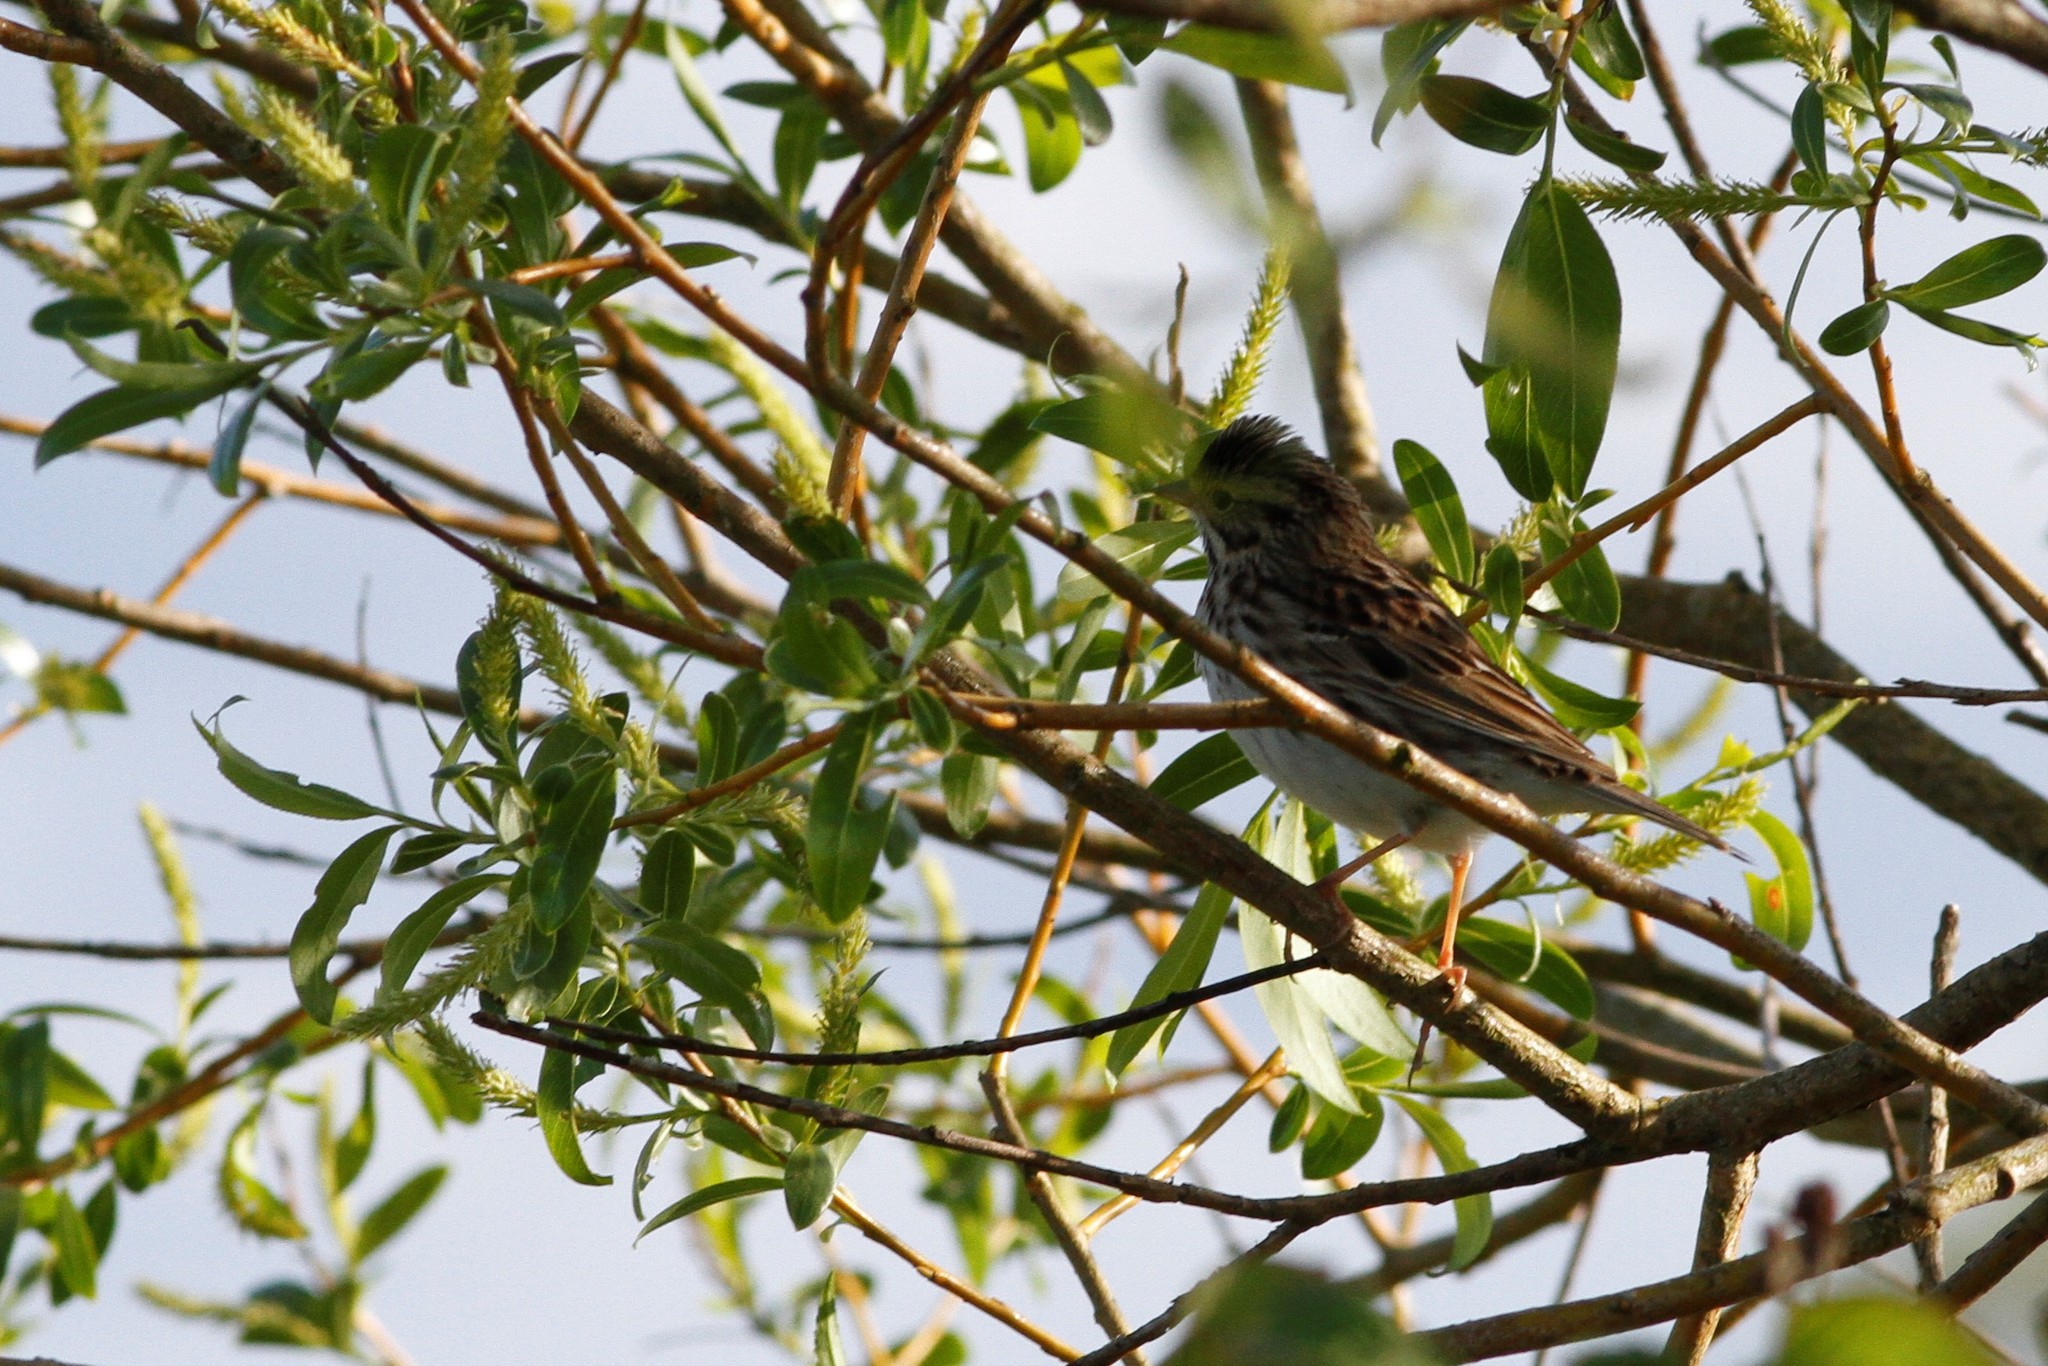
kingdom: Animalia
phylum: Chordata
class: Aves
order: Passeriformes
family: Passerellidae
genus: Passerculus
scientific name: Passerculus sandwichensis
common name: Savannah sparrow
